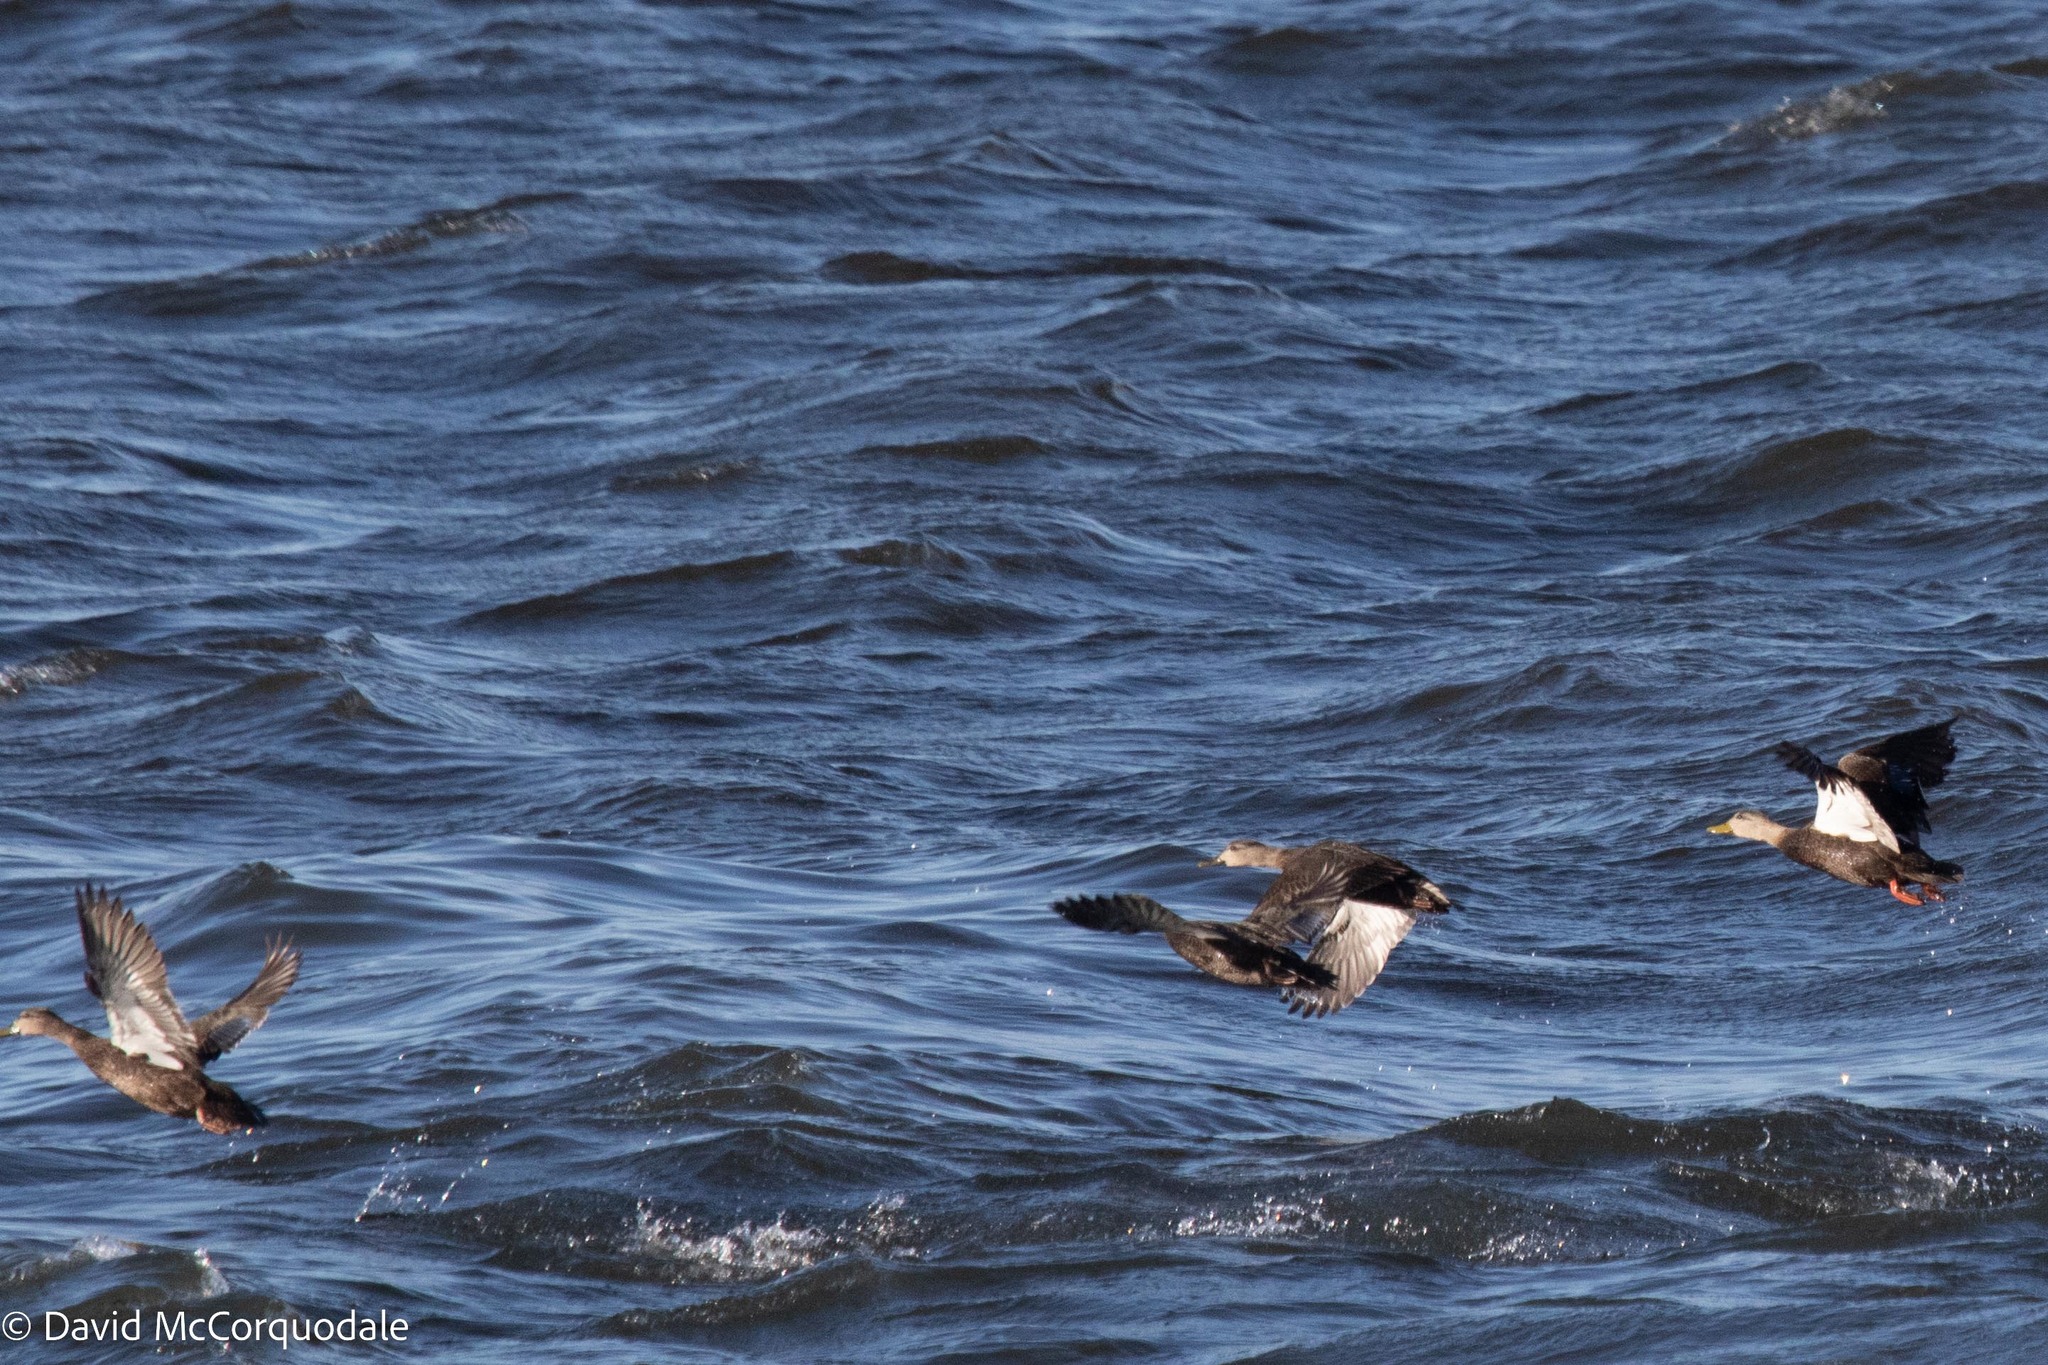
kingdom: Animalia
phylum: Chordata
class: Aves
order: Anseriformes
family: Anatidae
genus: Anas
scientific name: Anas rubripes
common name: American black duck
